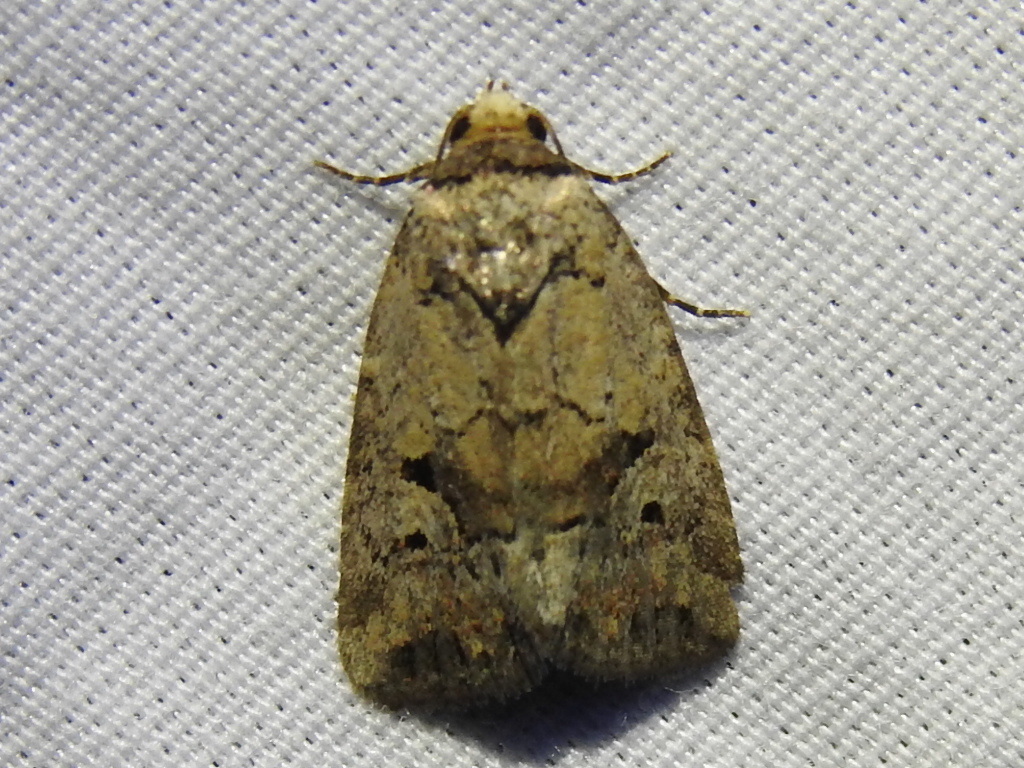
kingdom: Animalia
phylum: Arthropoda
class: Insecta
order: Lepidoptera
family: Noctuidae
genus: Elaphria
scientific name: Elaphria festivoides
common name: Festive midget
